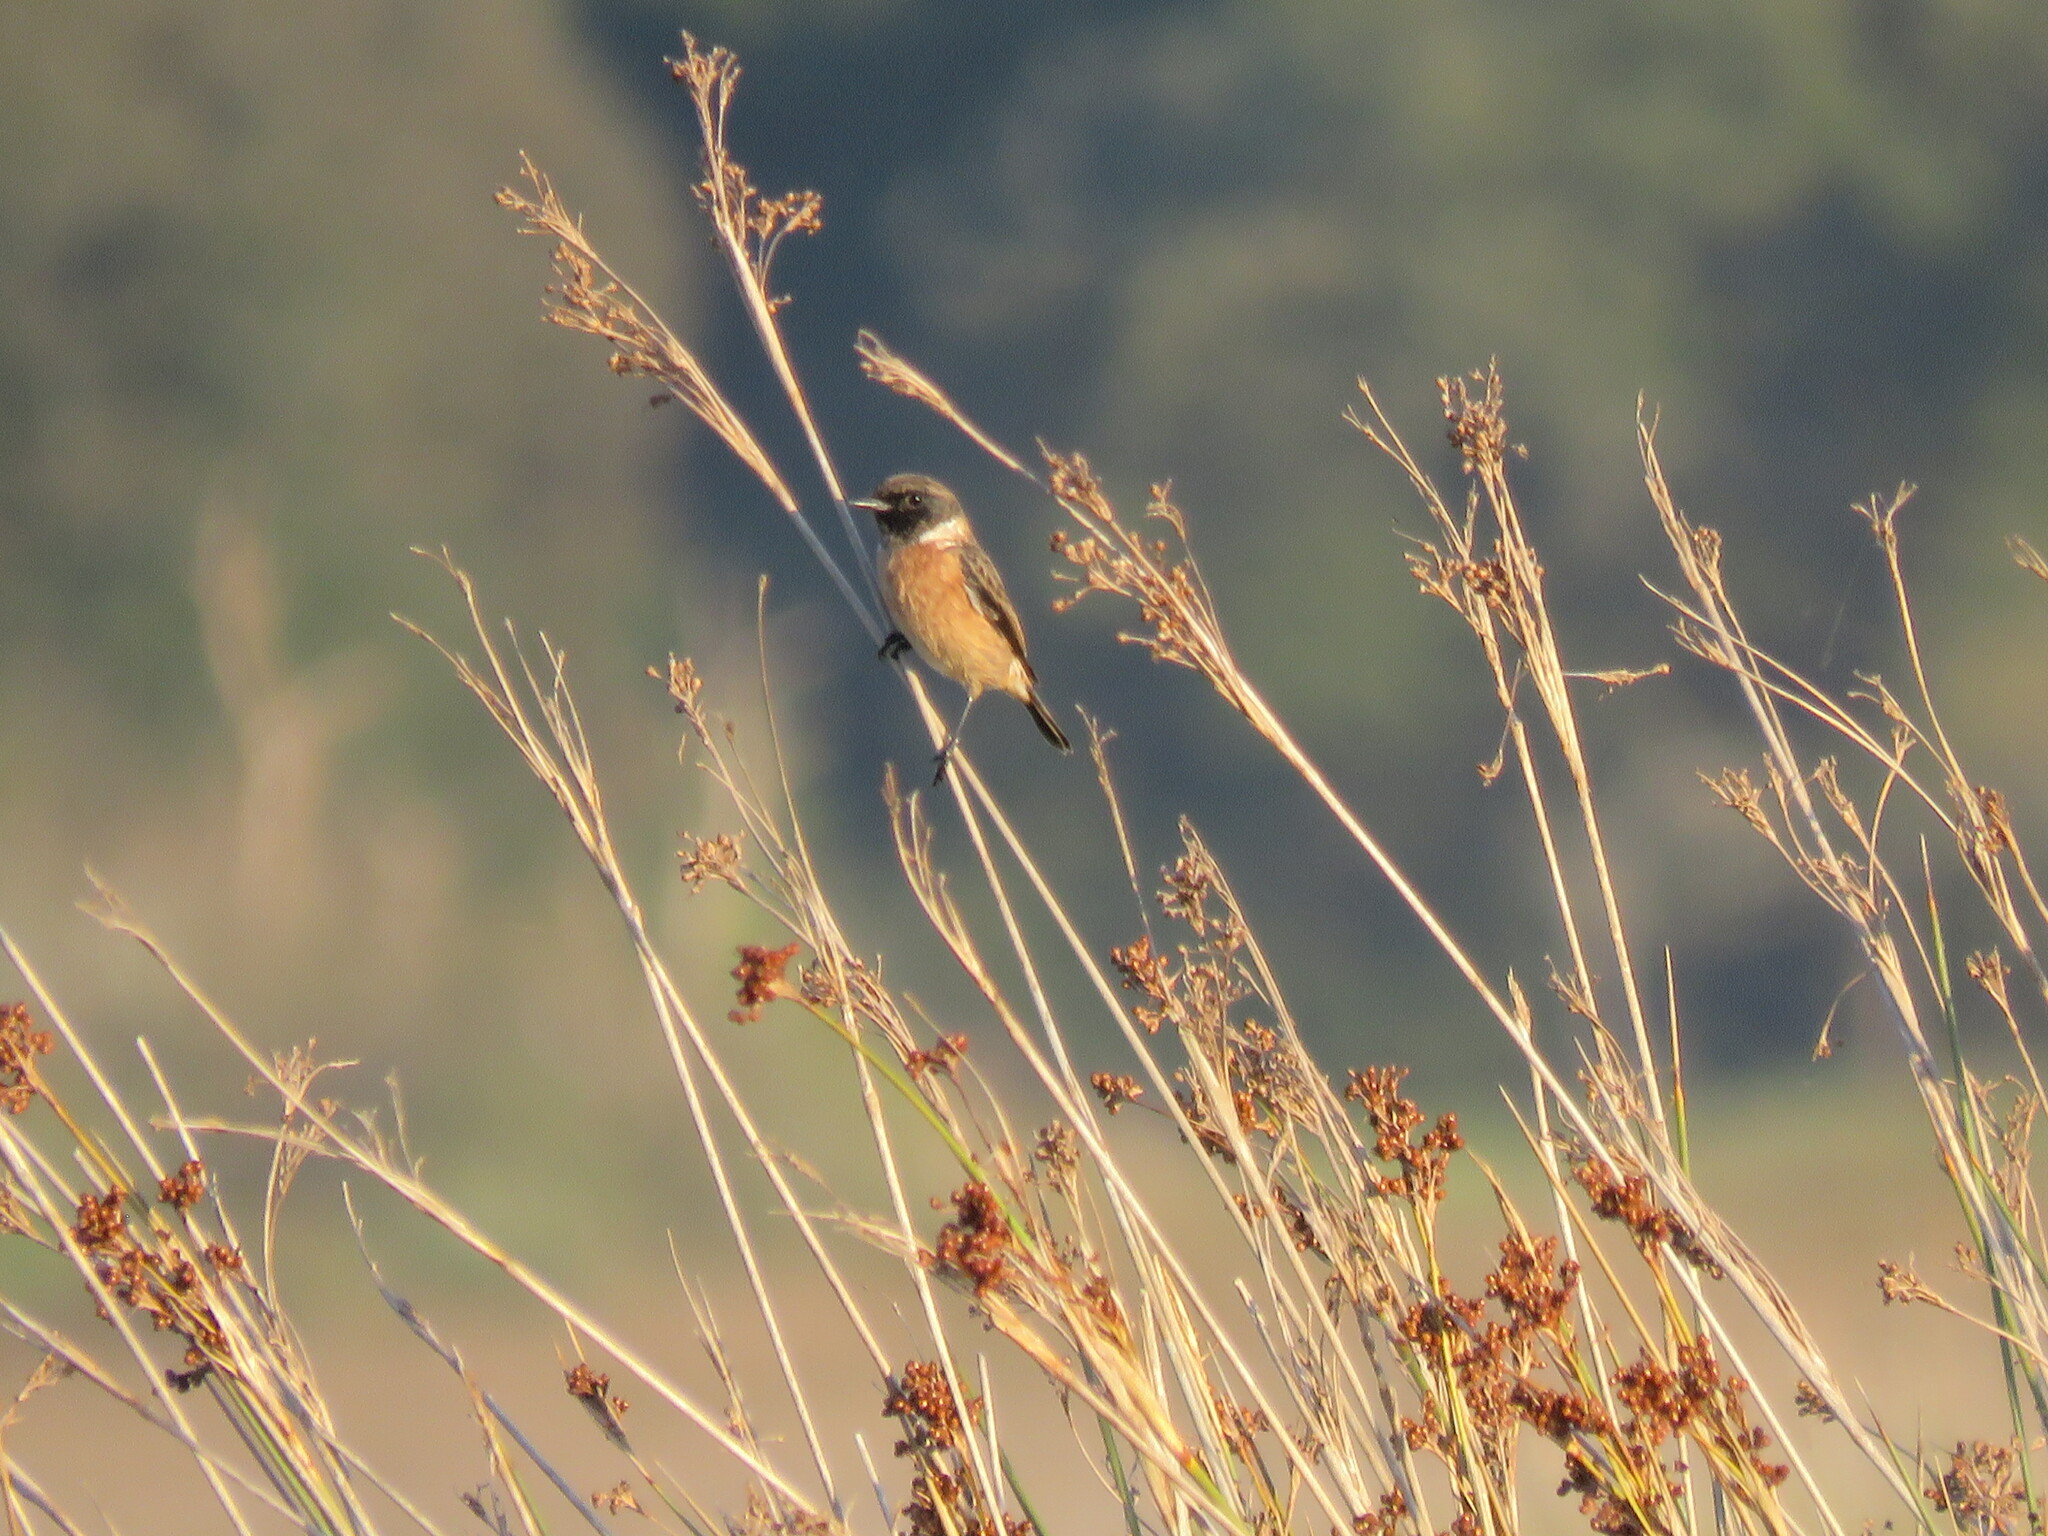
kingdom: Animalia
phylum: Chordata
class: Aves
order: Passeriformes
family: Muscicapidae
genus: Saxicola
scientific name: Saxicola rubicola
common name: European stonechat
